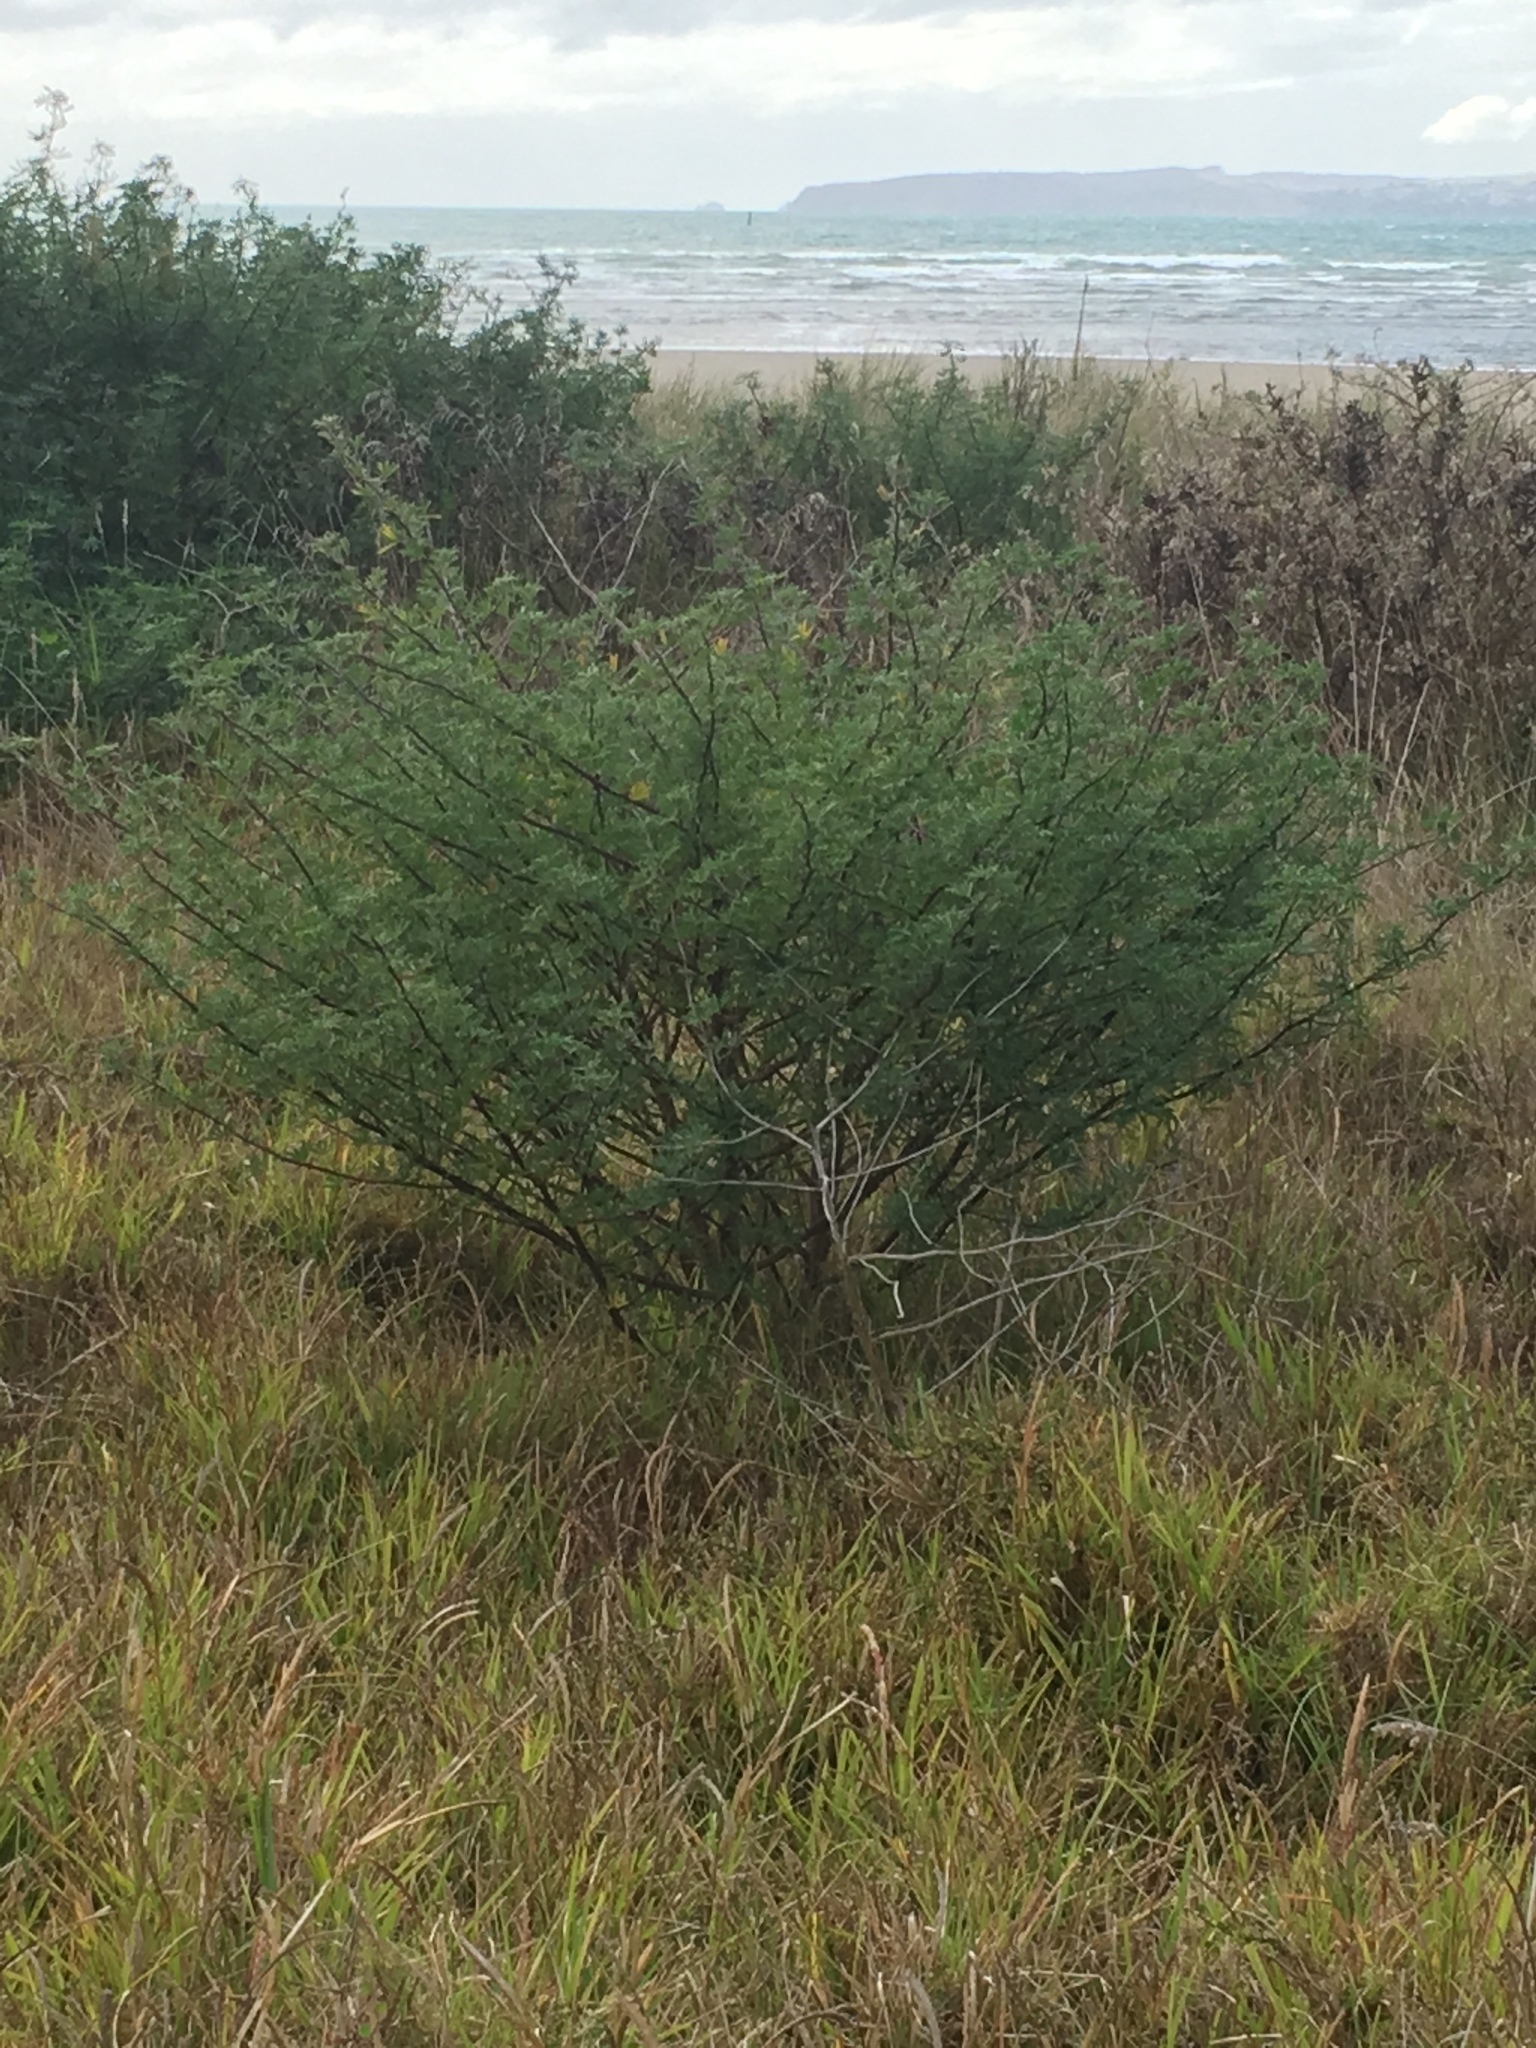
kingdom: Plantae
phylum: Tracheophyta
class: Magnoliopsida
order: Fabales
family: Fabaceae
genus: Lupinus
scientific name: Lupinus arboreus
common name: Yellow bush lupine
